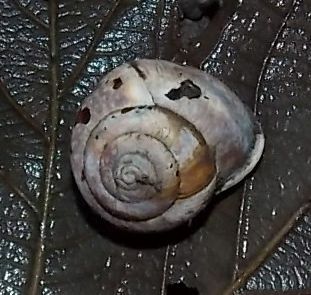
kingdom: Animalia
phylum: Mollusca
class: Gastropoda
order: Stylommatophora
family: Helicidae
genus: Arianta
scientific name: Arianta arbustorum
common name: Copse snail
